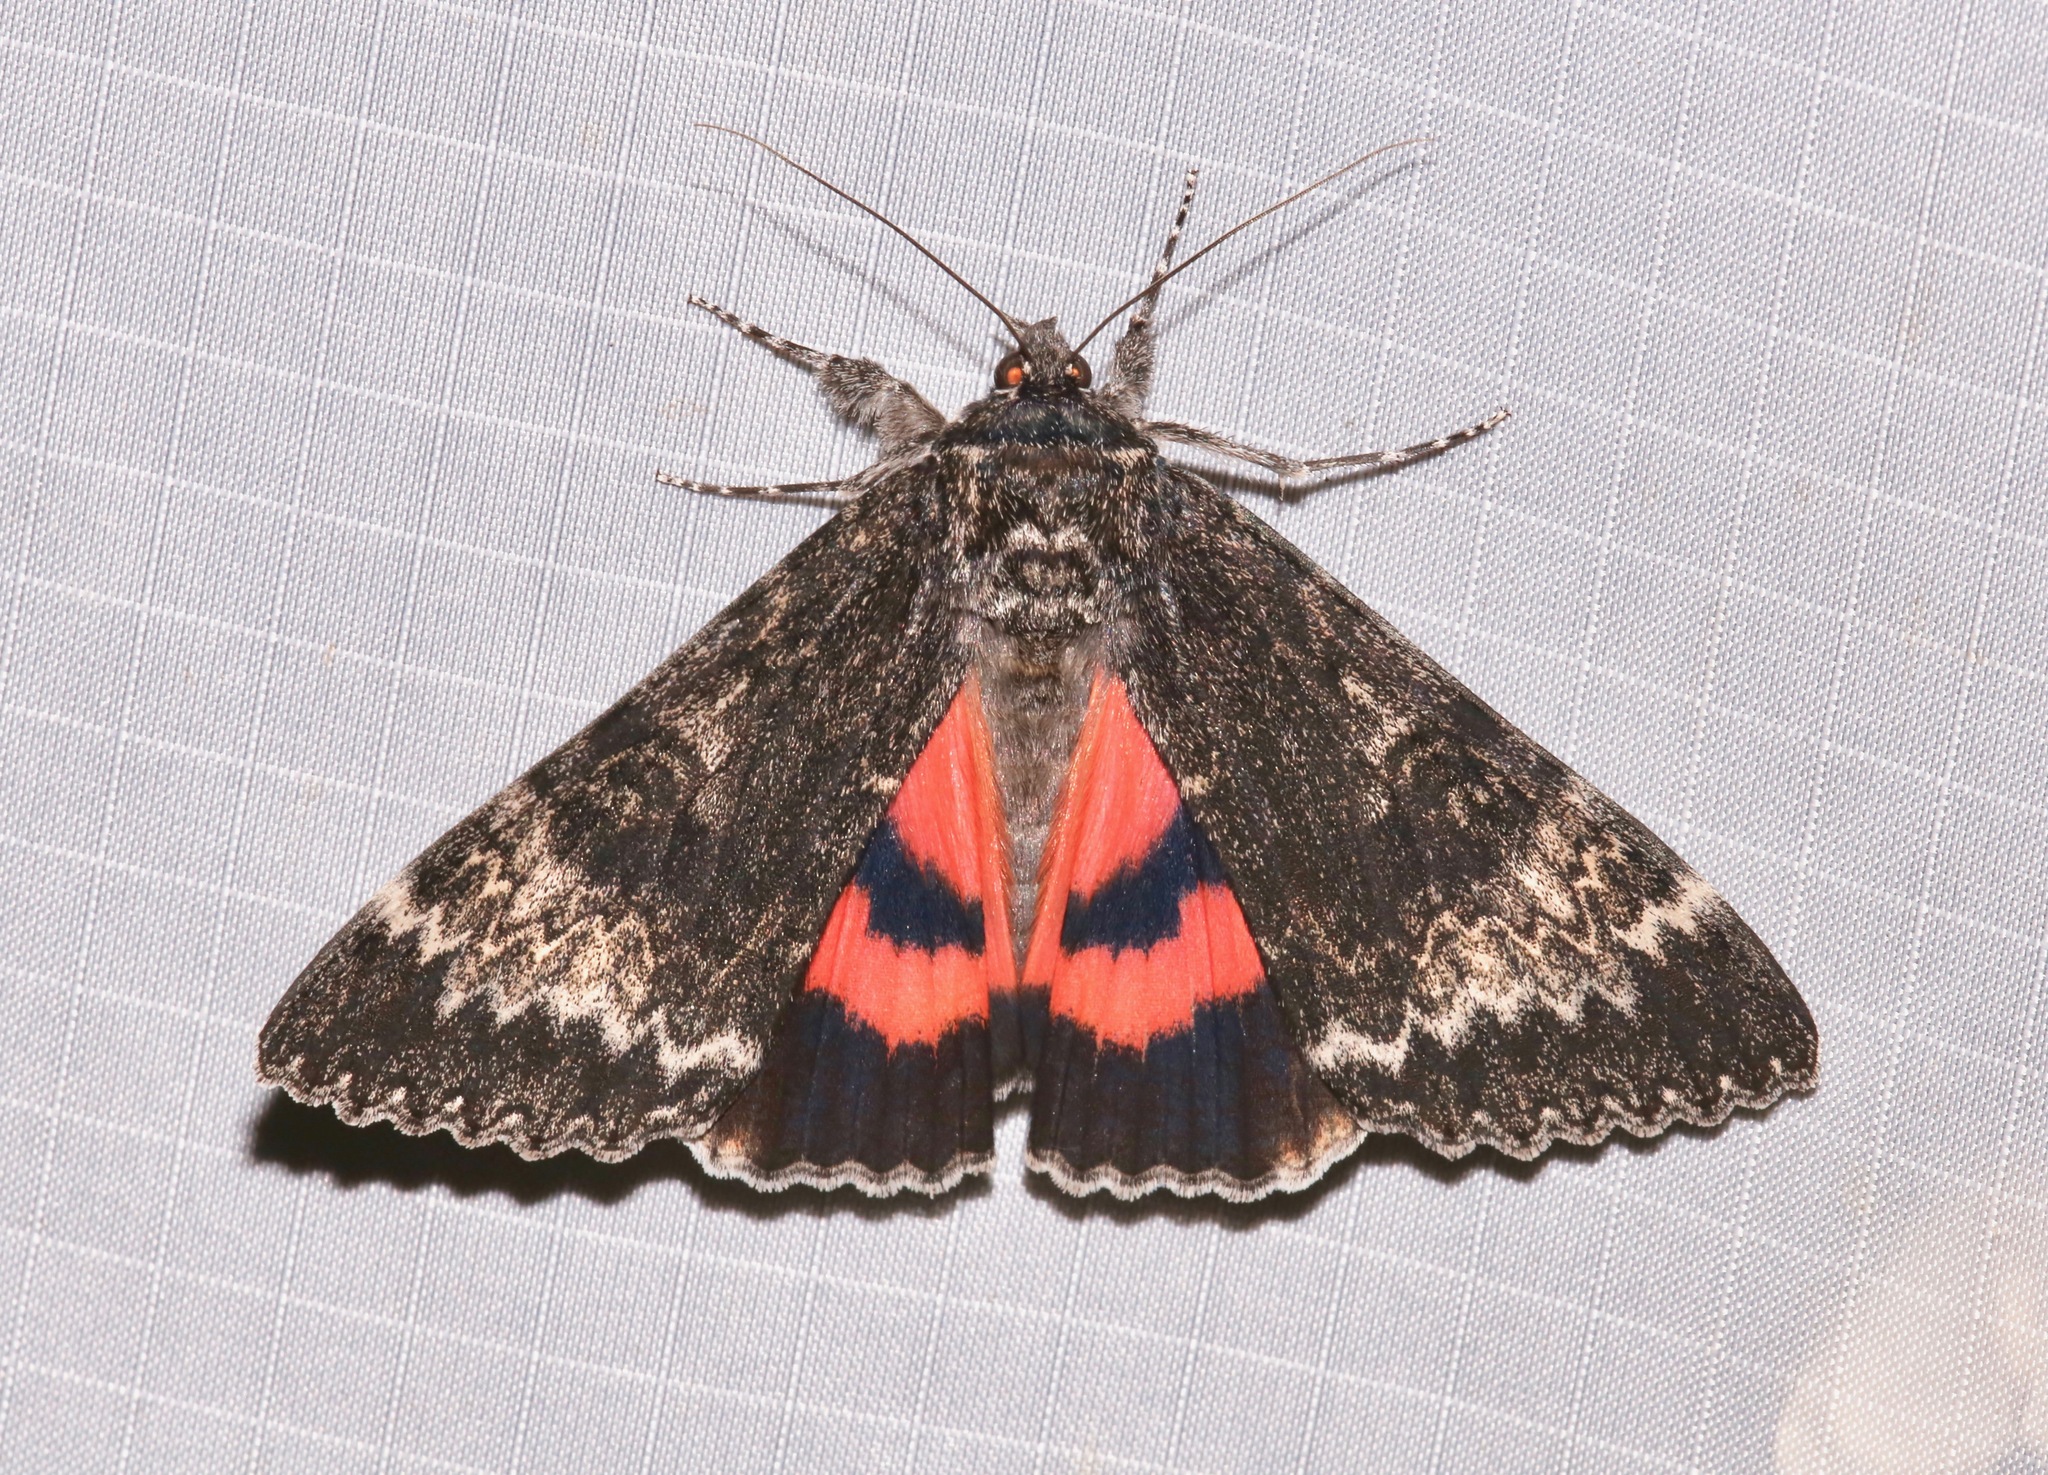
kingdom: Animalia
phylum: Arthropoda
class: Insecta
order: Lepidoptera
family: Erebidae
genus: Catocala
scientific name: Catocala grotiana
